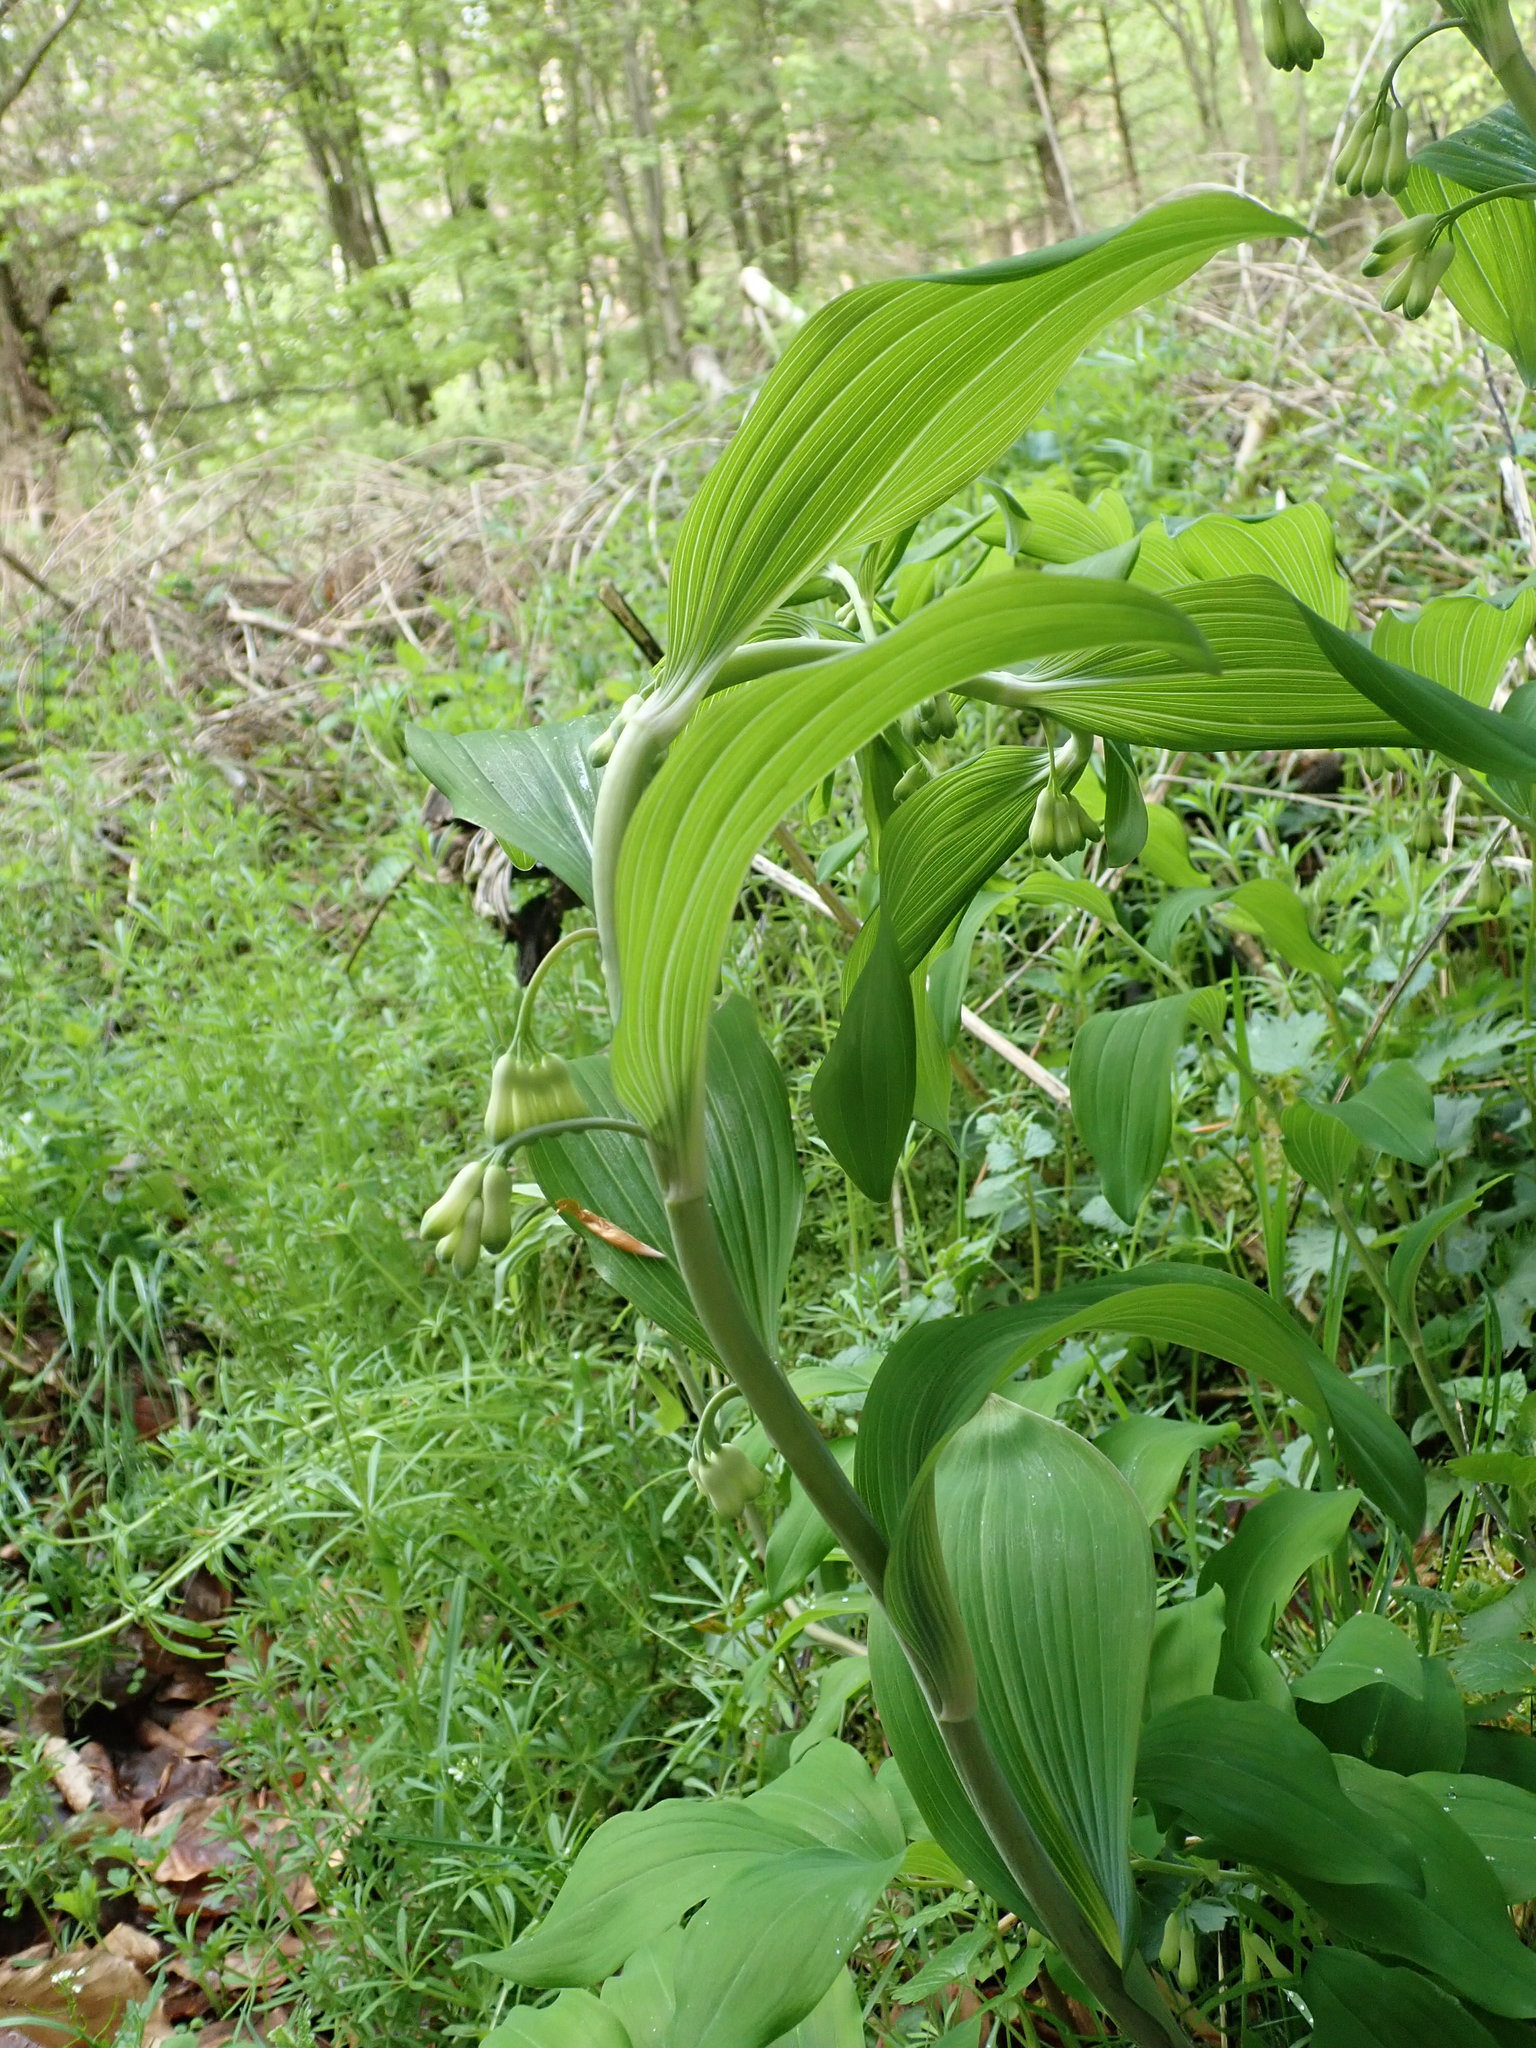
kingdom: Plantae
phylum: Tracheophyta
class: Liliopsida
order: Asparagales
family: Asparagaceae
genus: Polygonatum
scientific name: Polygonatum multiflorum
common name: Solomon's-seal
